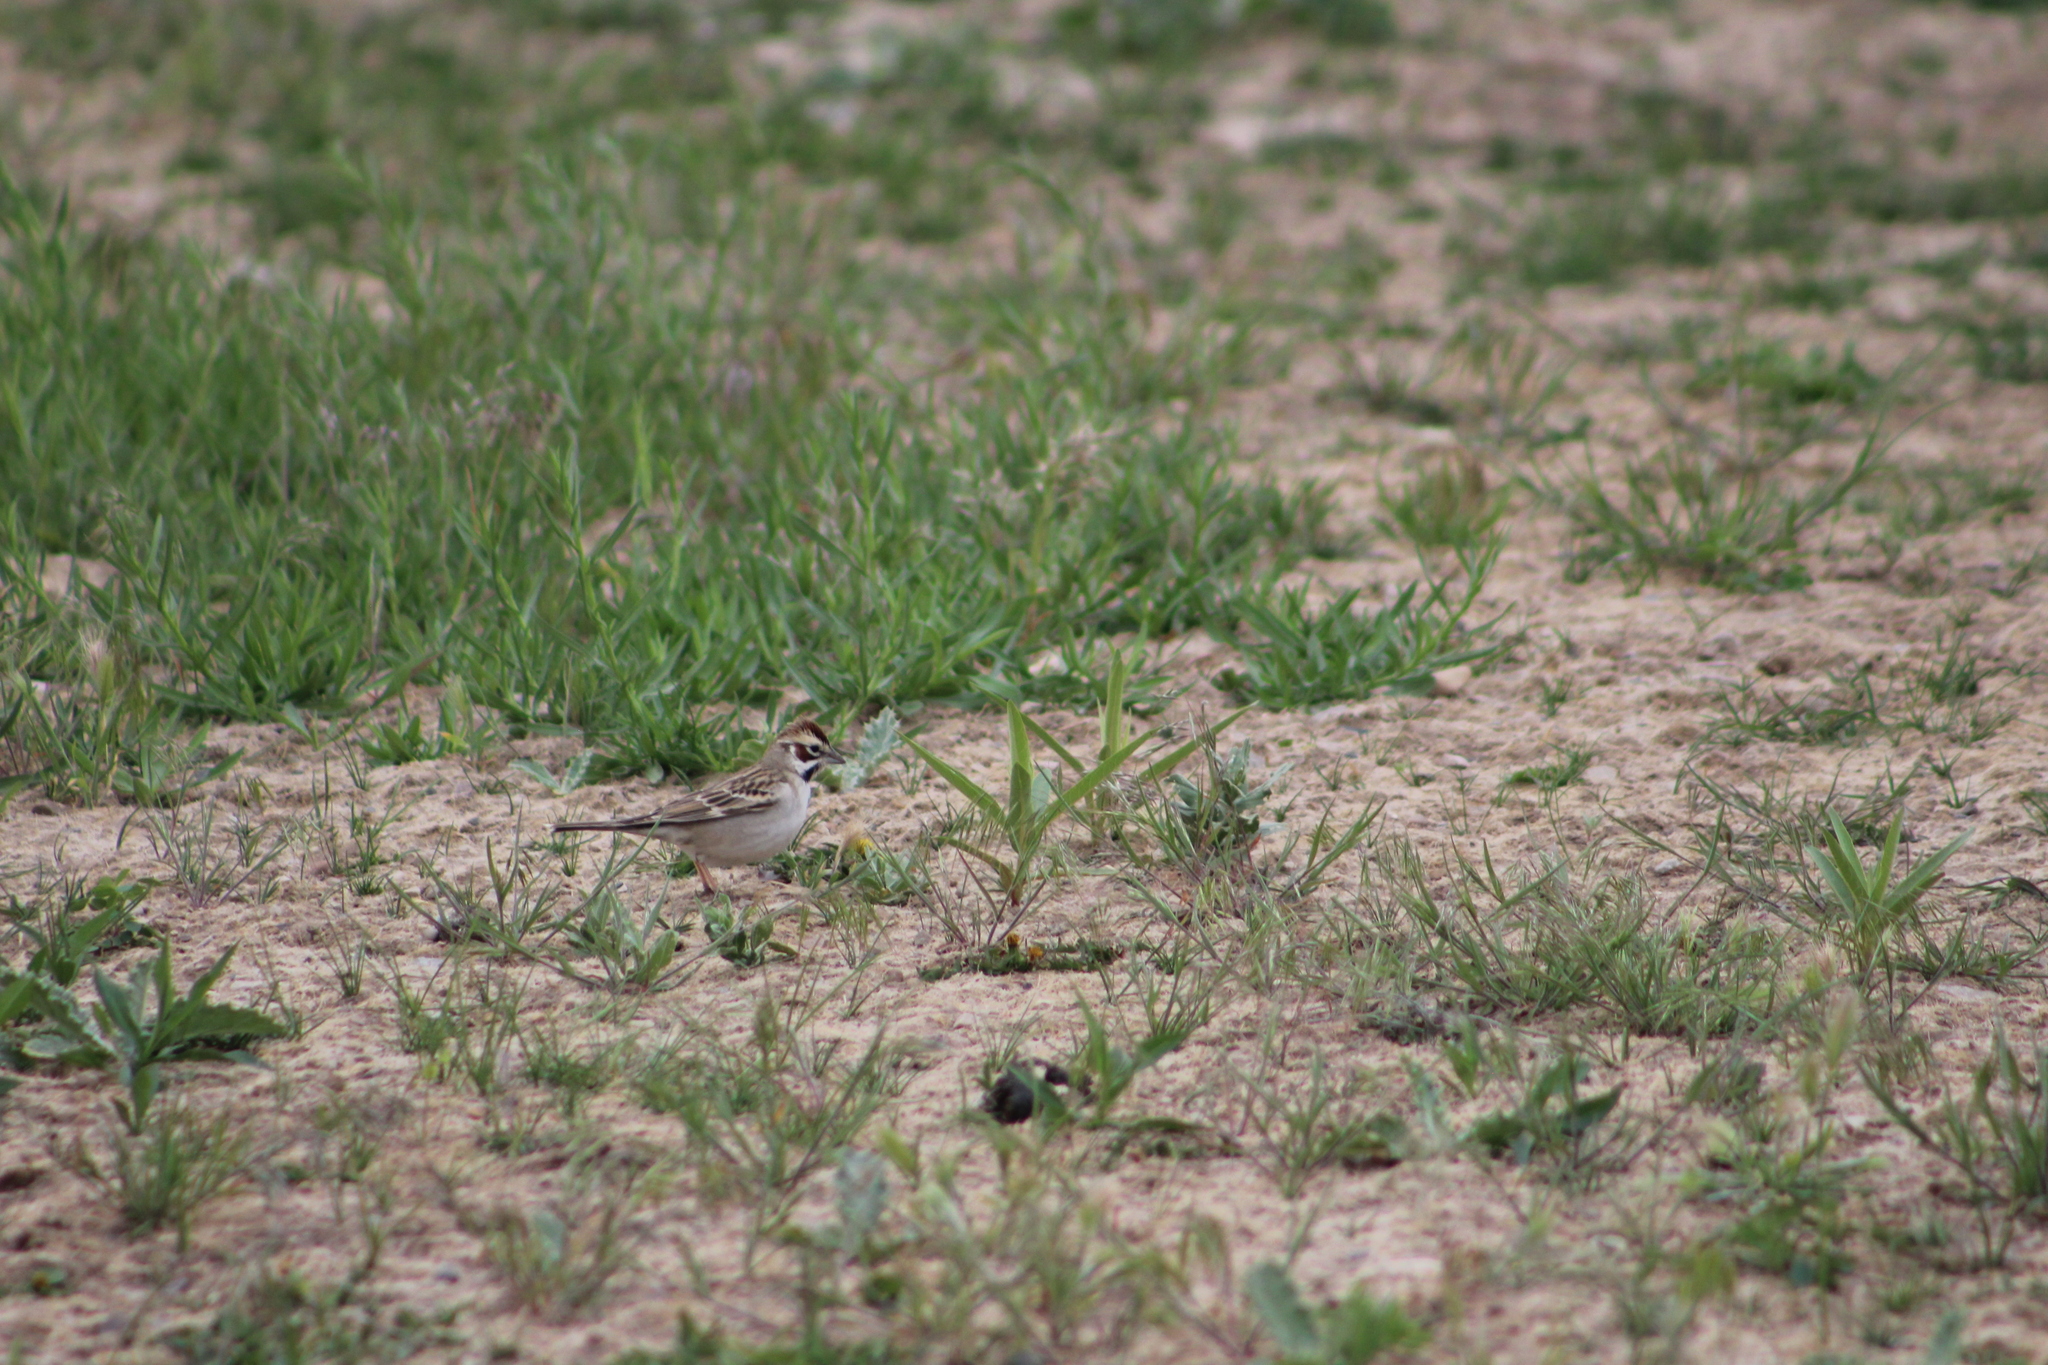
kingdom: Animalia
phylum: Chordata
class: Aves
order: Passeriformes
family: Passerellidae
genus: Chondestes
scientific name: Chondestes grammacus
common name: Lark sparrow
